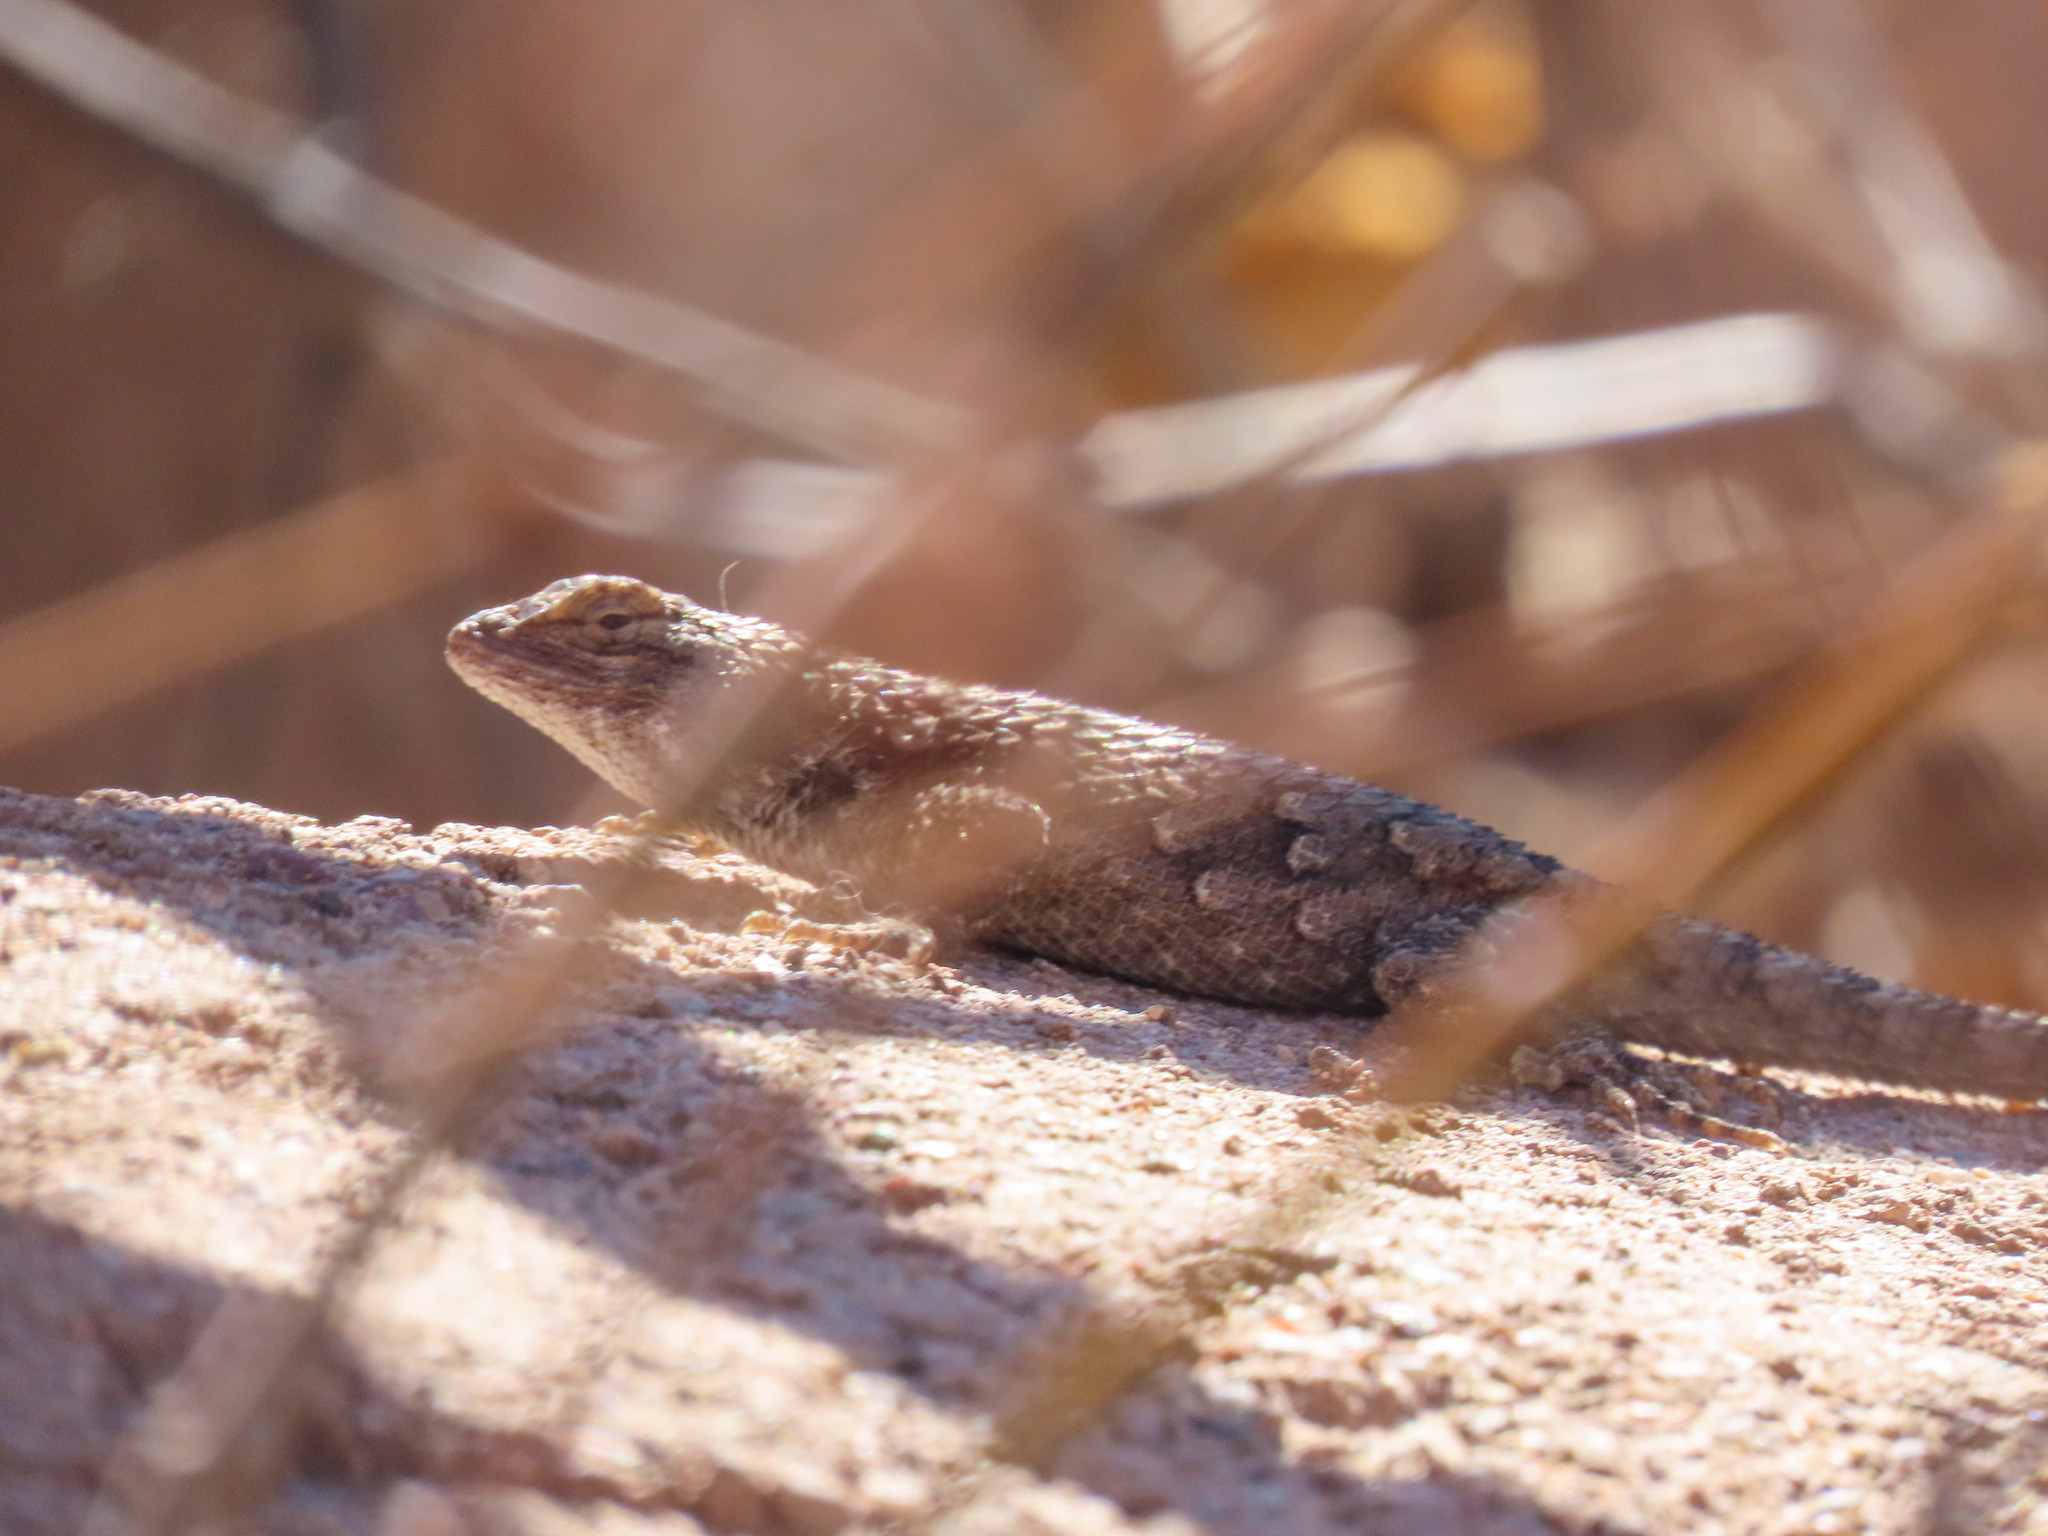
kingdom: Animalia
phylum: Chordata
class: Squamata
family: Phrynosomatidae
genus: Sceloporus
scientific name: Sceloporus clarkii
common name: Clark's spiny lizard
